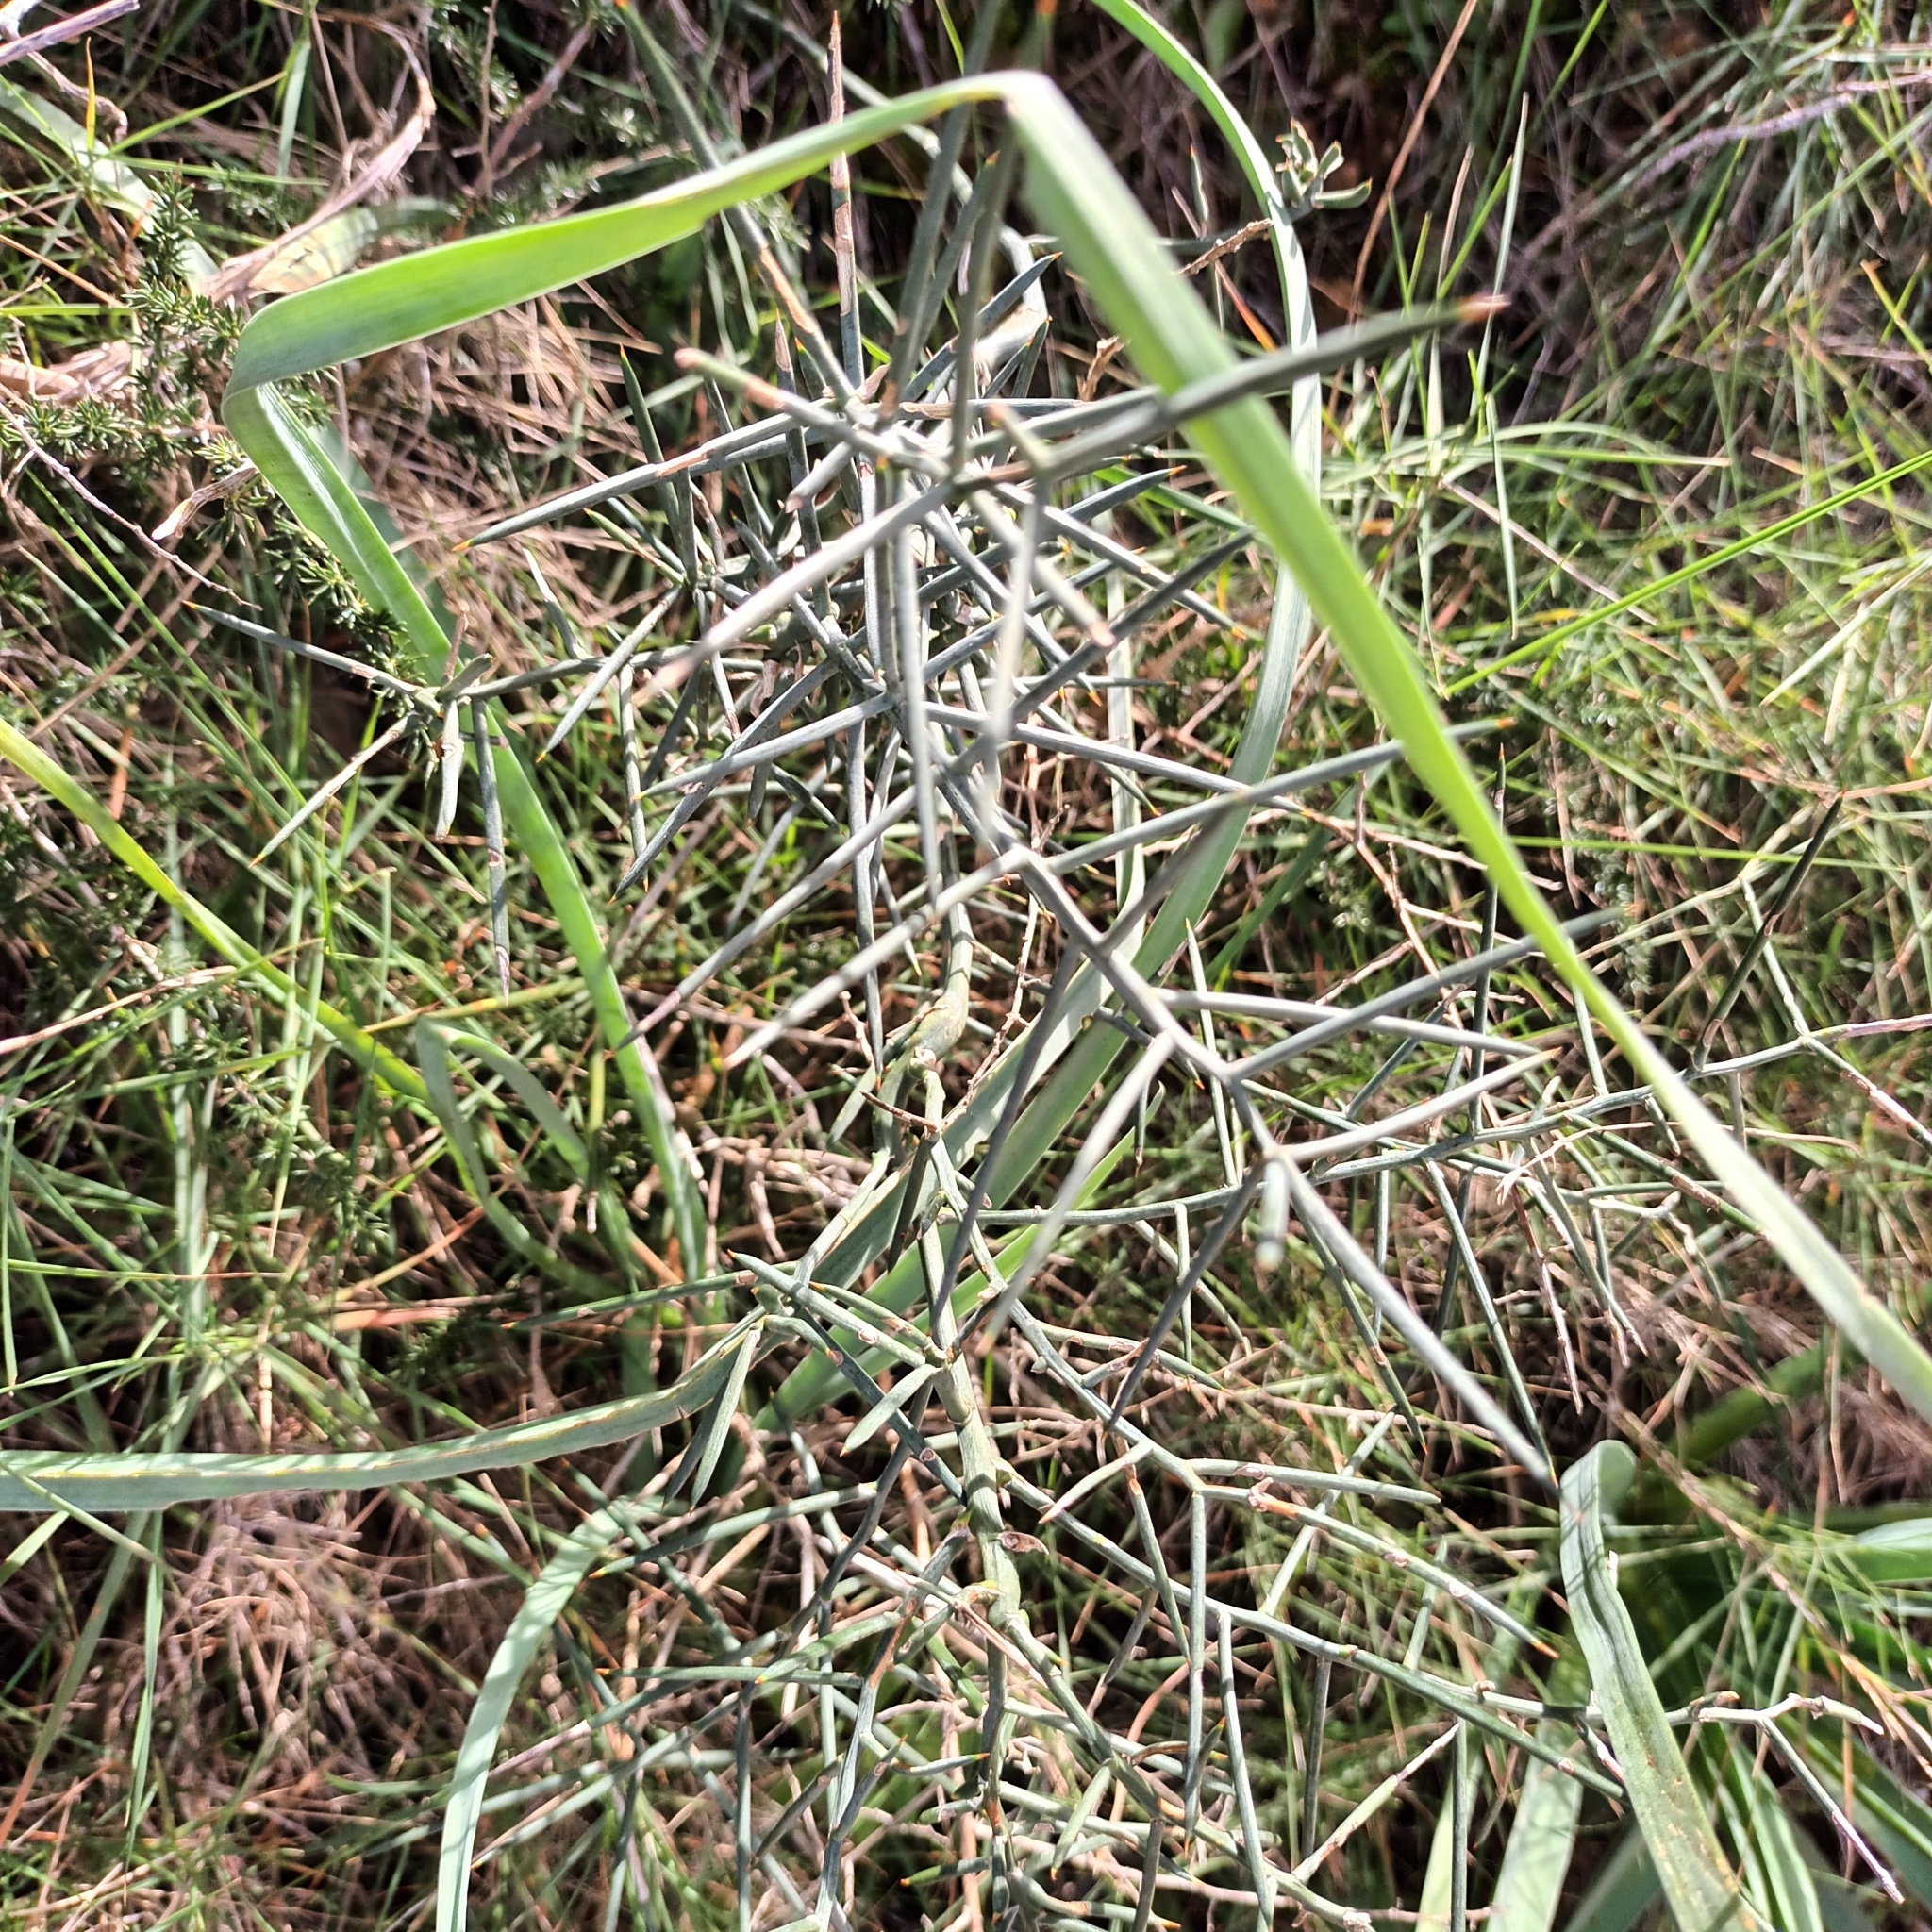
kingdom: Plantae
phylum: Tracheophyta
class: Liliopsida
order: Asparagales
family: Asparagaceae
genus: Asparagus
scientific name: Asparagus horridus
